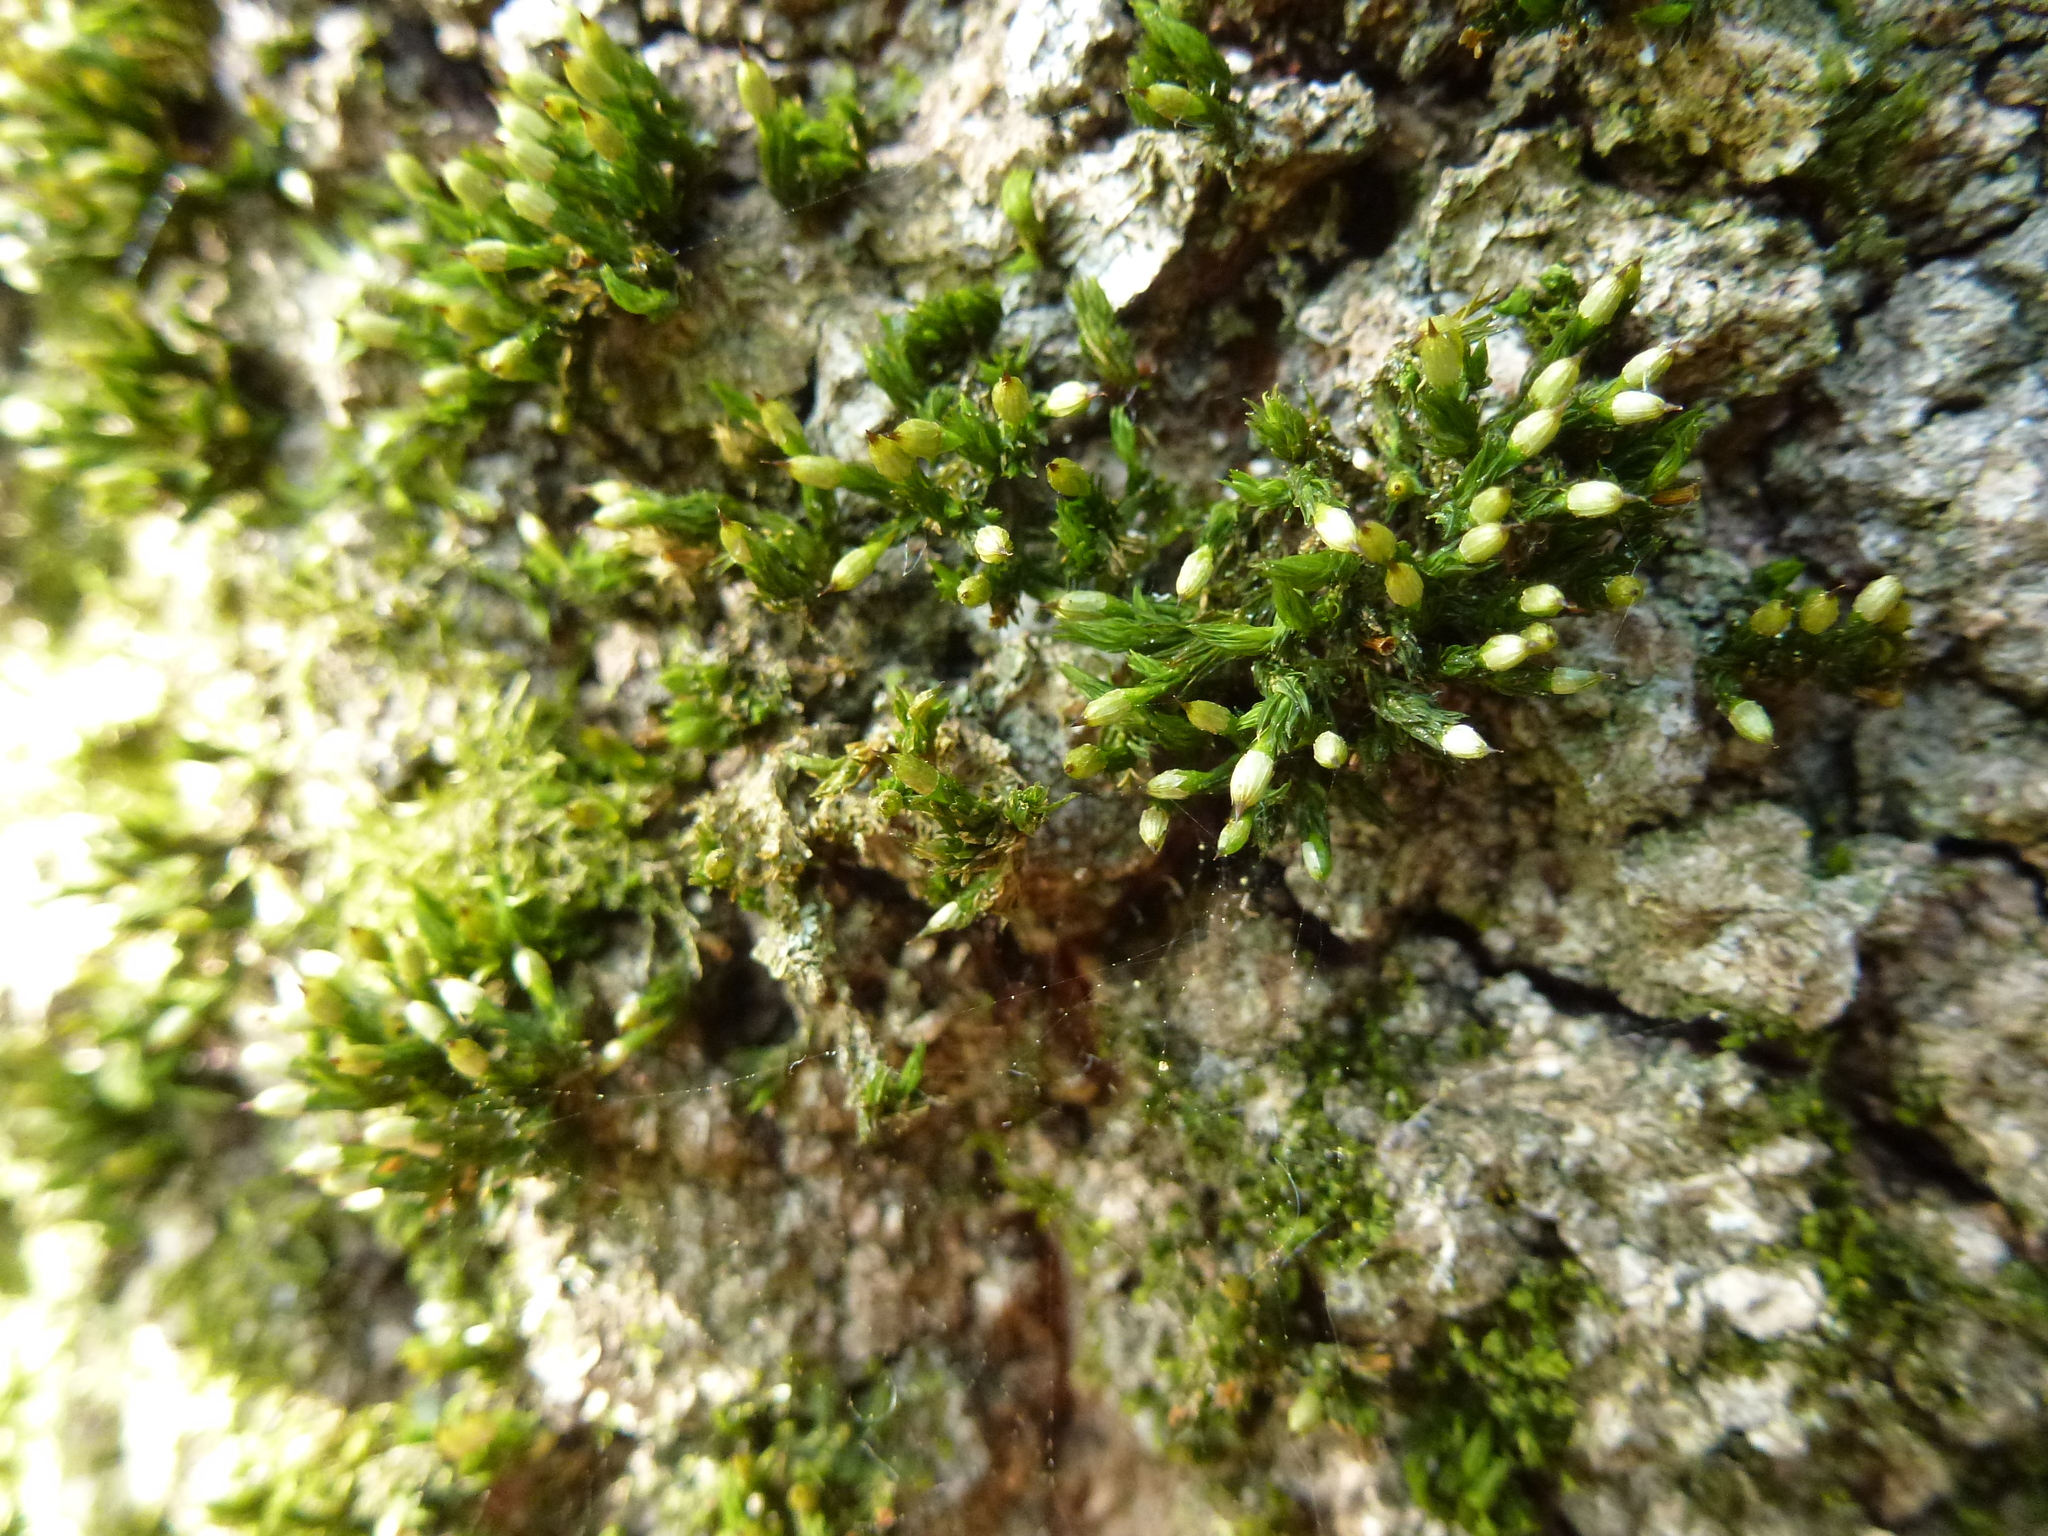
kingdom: Plantae
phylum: Bryophyta
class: Bryopsida
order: Orthotrichales
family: Orthotrichaceae
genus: Orthotrichum
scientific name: Orthotrichum stramineum
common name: Straw bristle-moss
